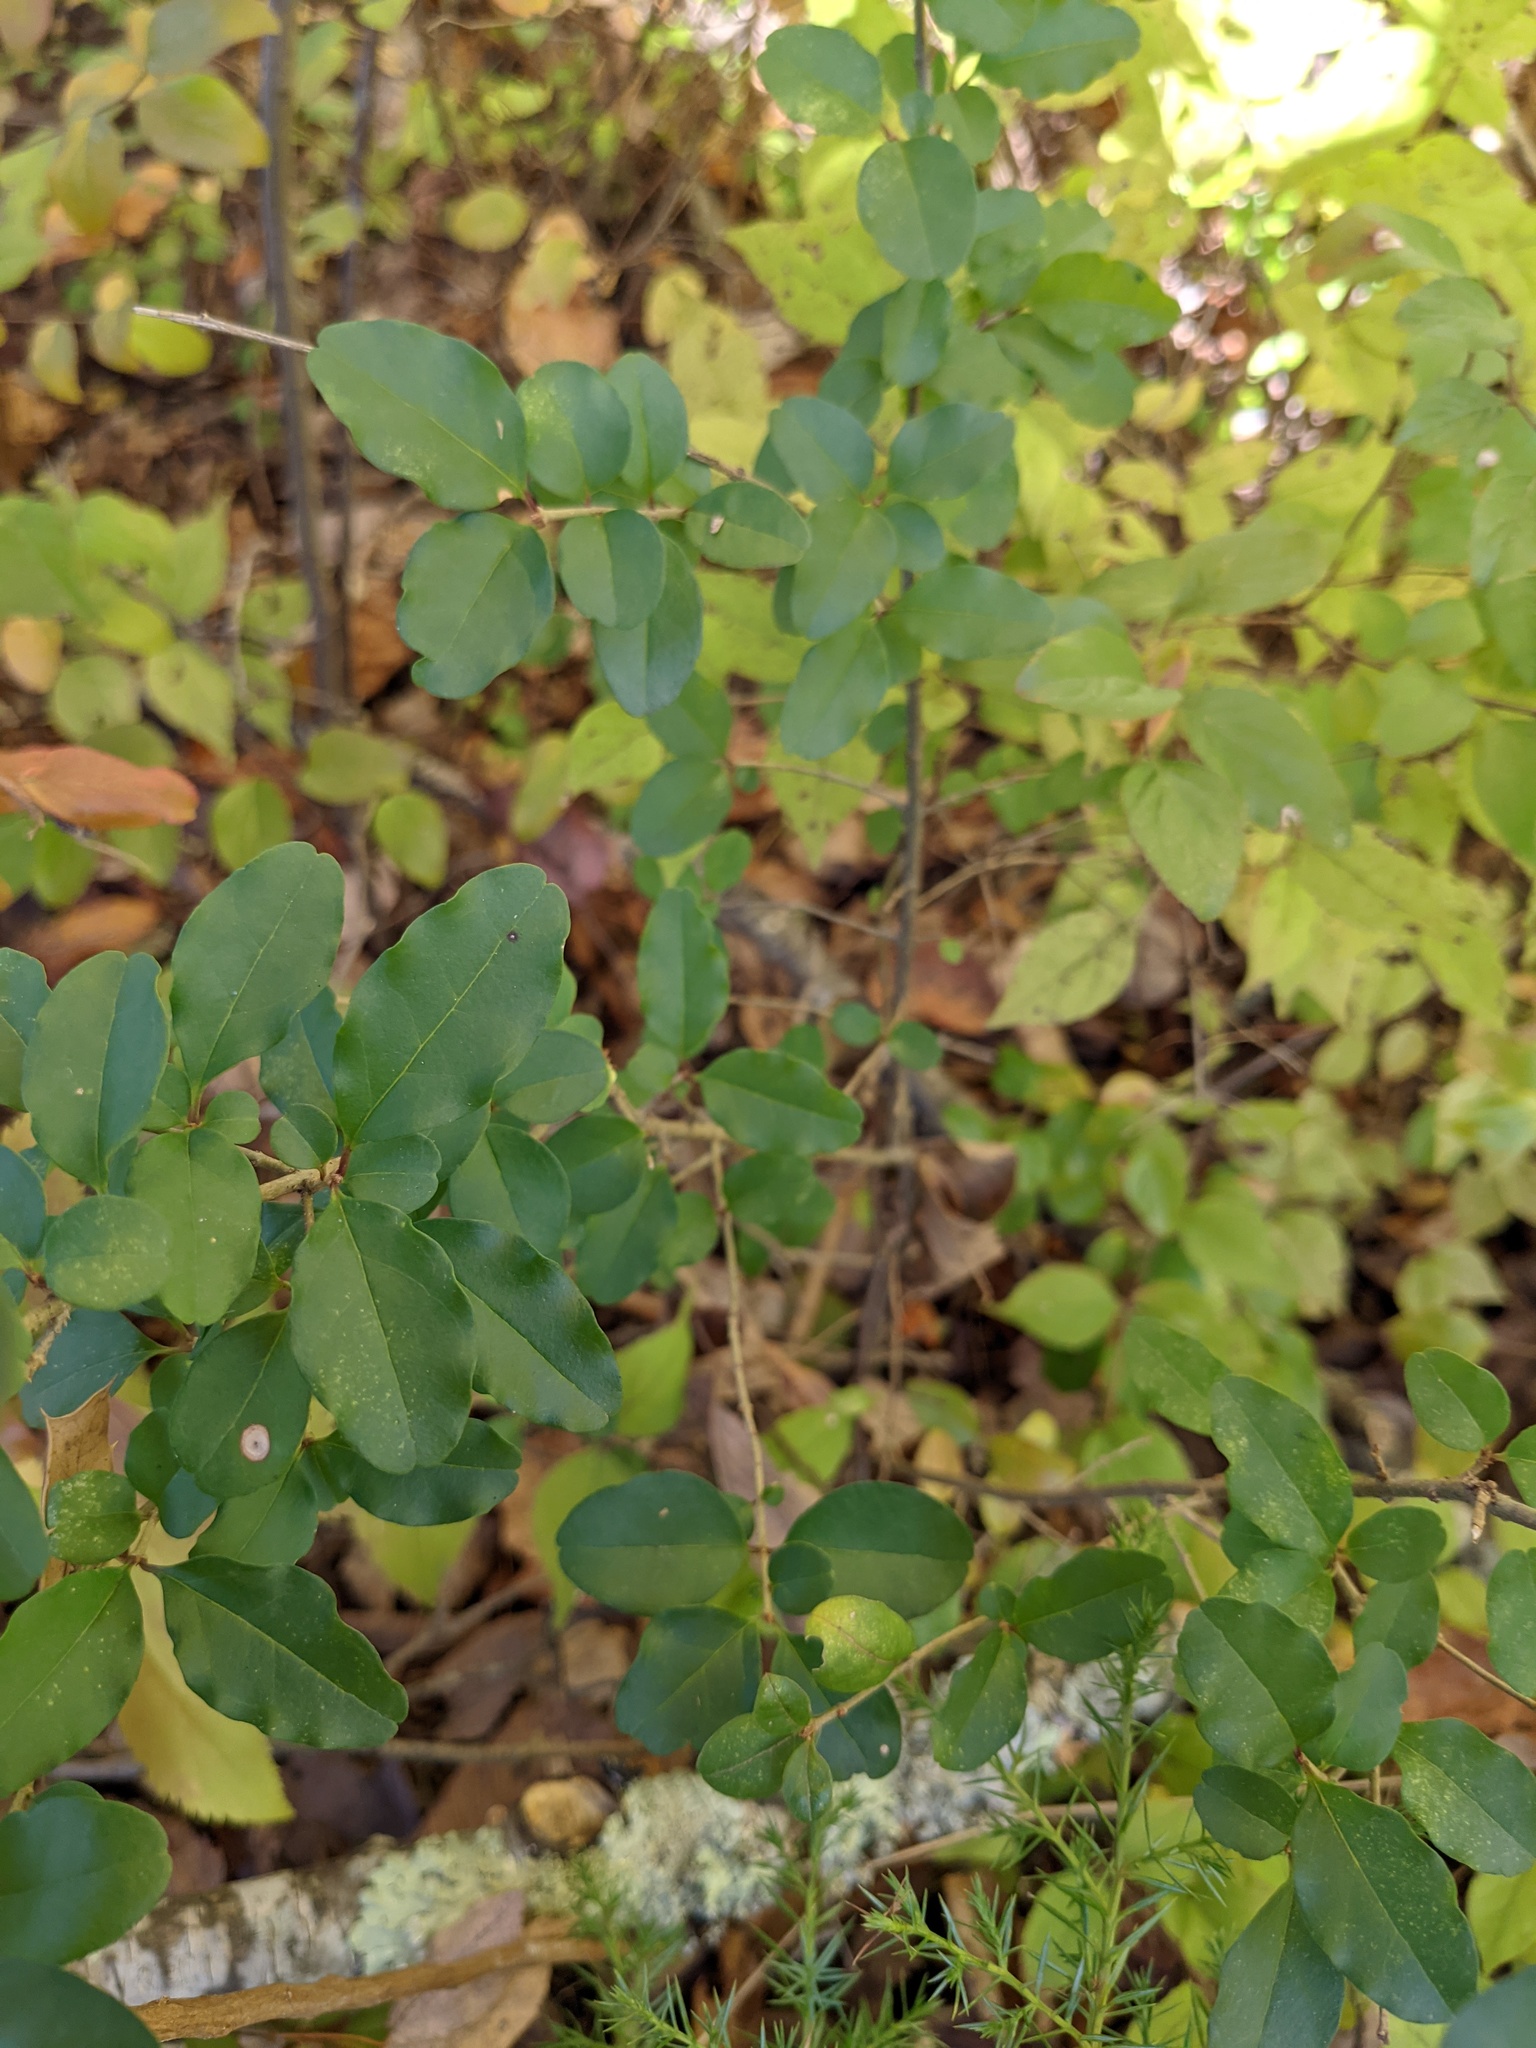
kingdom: Plantae
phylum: Tracheophyta
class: Magnoliopsida
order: Lamiales
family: Oleaceae
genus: Ligustrum
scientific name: Ligustrum sinense
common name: Chinese privet
